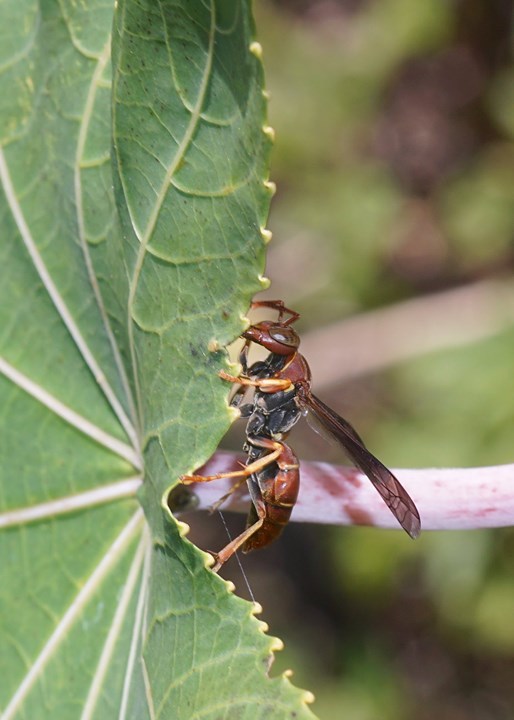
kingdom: Animalia
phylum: Arthropoda
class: Insecta
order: Hymenoptera
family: Eumenidae
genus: Polistes
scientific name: Polistes dorsalis
